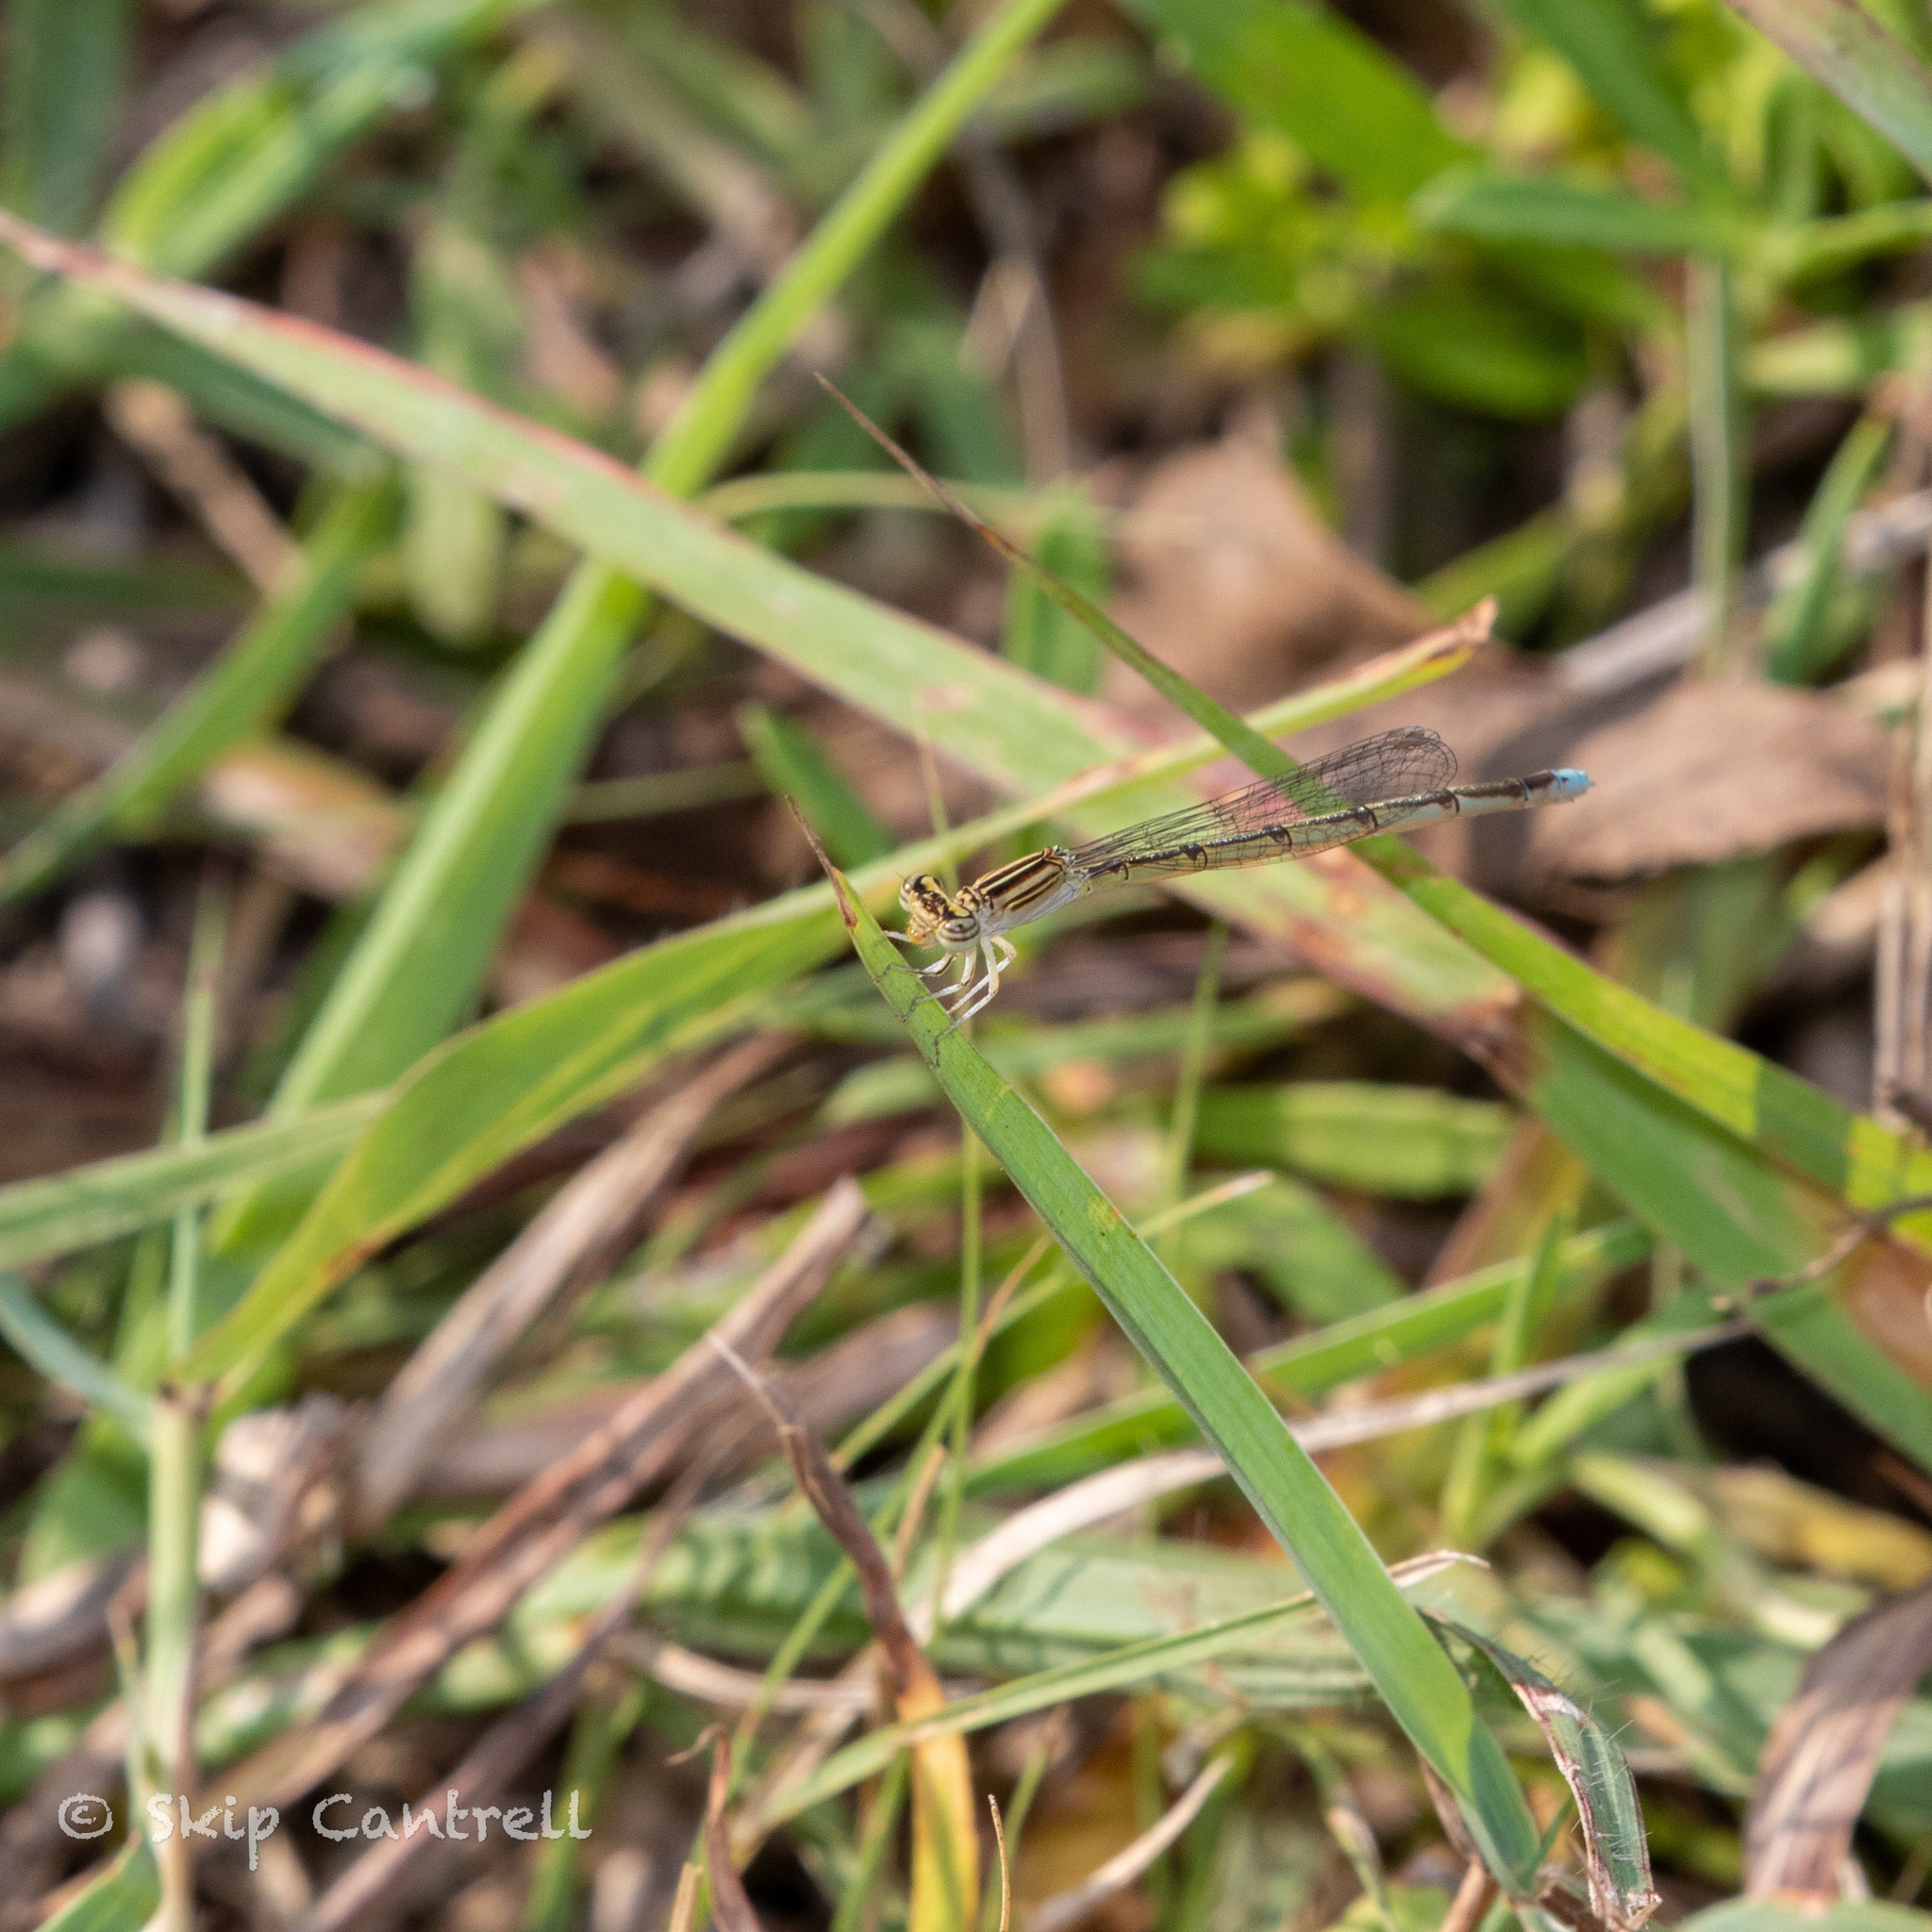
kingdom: Animalia
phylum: Arthropoda
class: Insecta
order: Odonata
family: Coenagrionidae
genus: Enallagma
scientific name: Enallagma basidens
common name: Double-striped bluet
